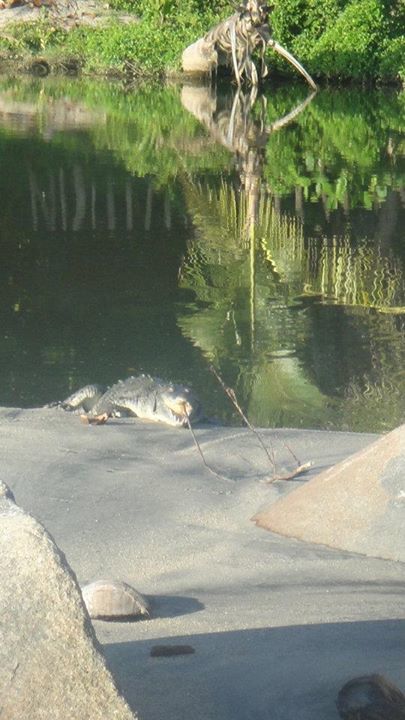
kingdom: Animalia
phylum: Chordata
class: Crocodylia
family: Crocodylidae
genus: Crocodylus
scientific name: Crocodylus acutus
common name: American crocodile
